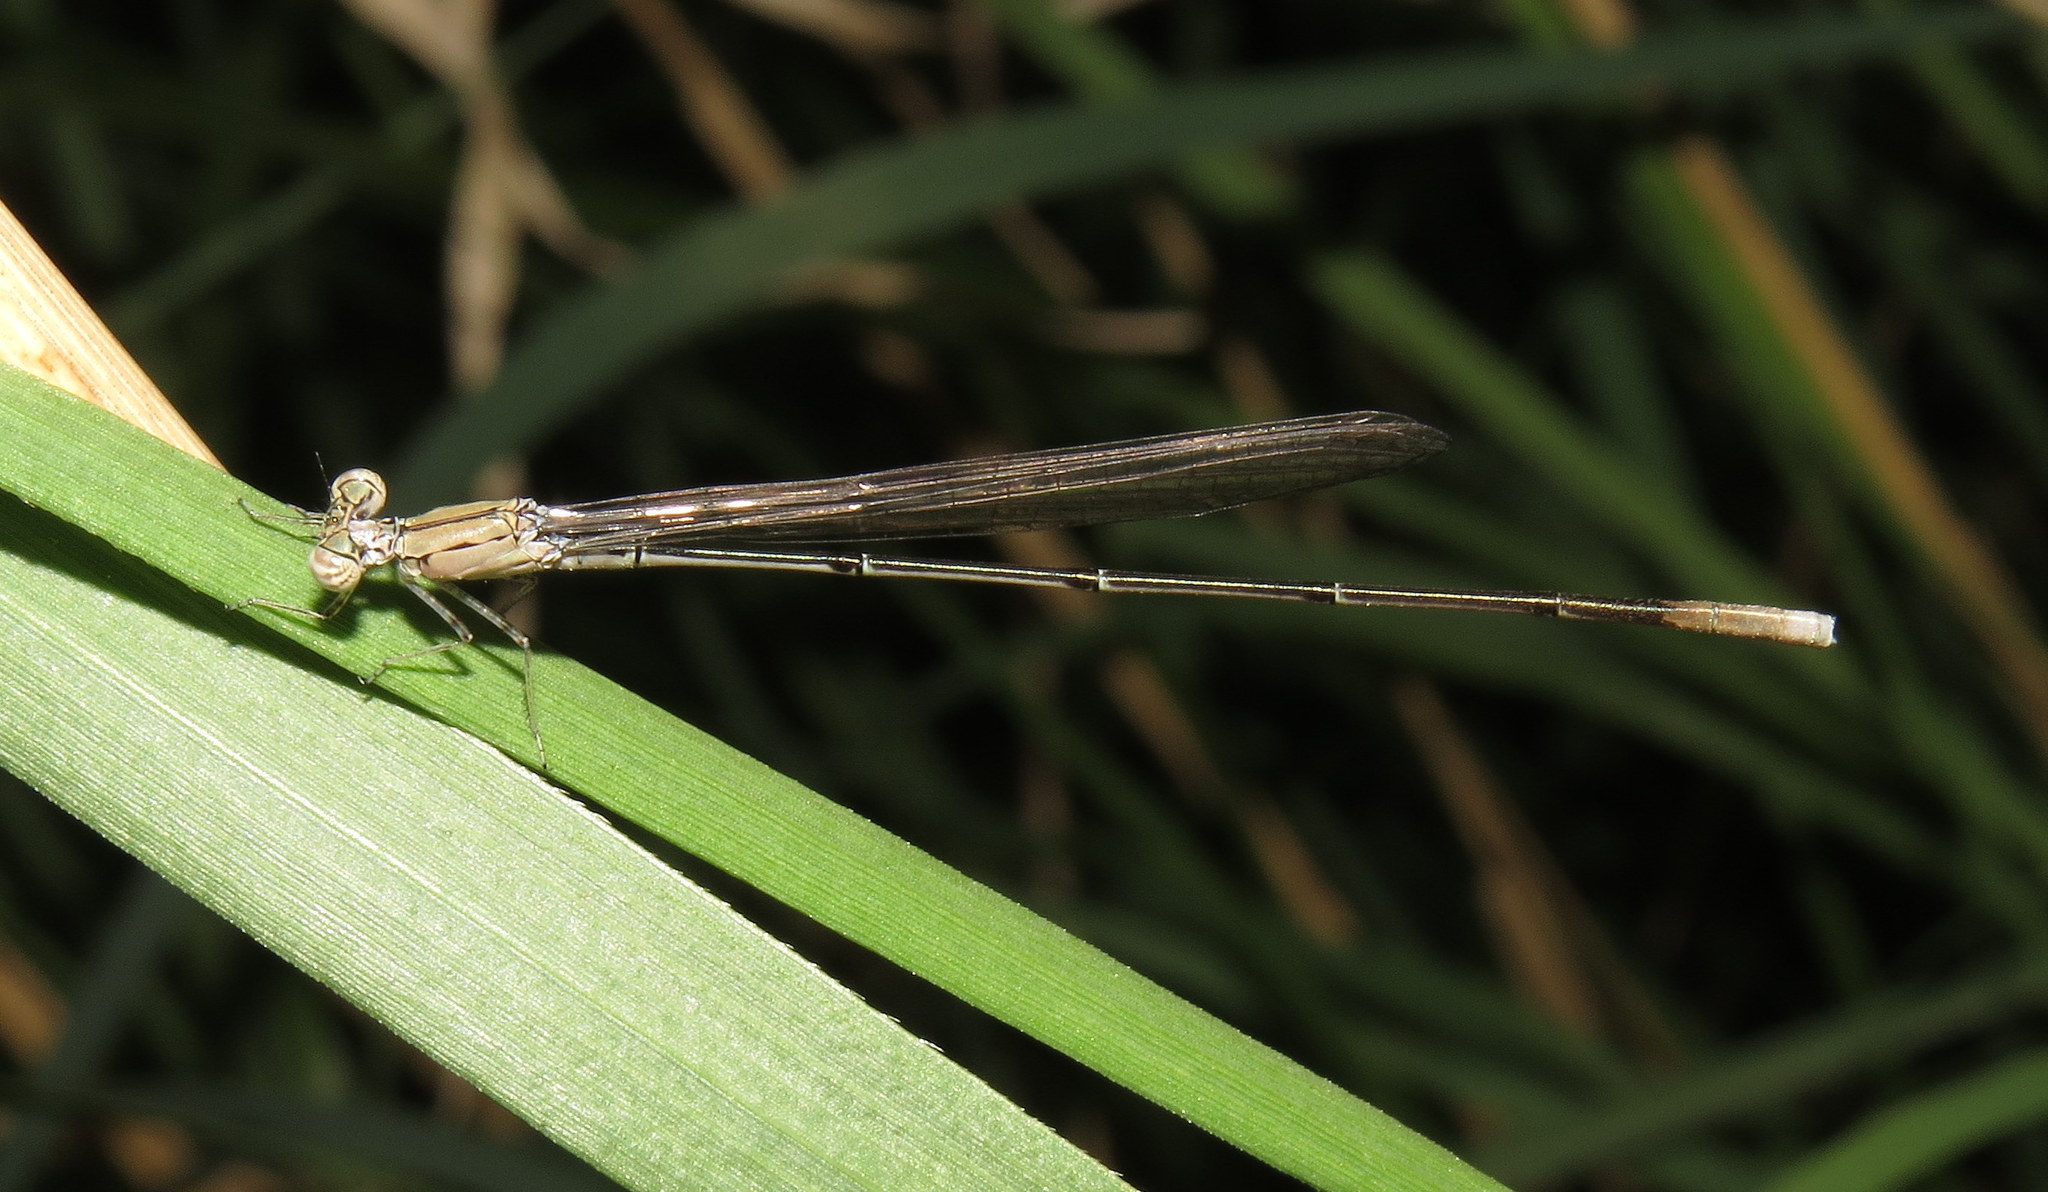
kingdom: Animalia
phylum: Arthropoda
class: Insecta
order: Odonata
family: Coenagrionidae
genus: Enallagma
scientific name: Enallagma daeckii
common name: Attenuated bluet
